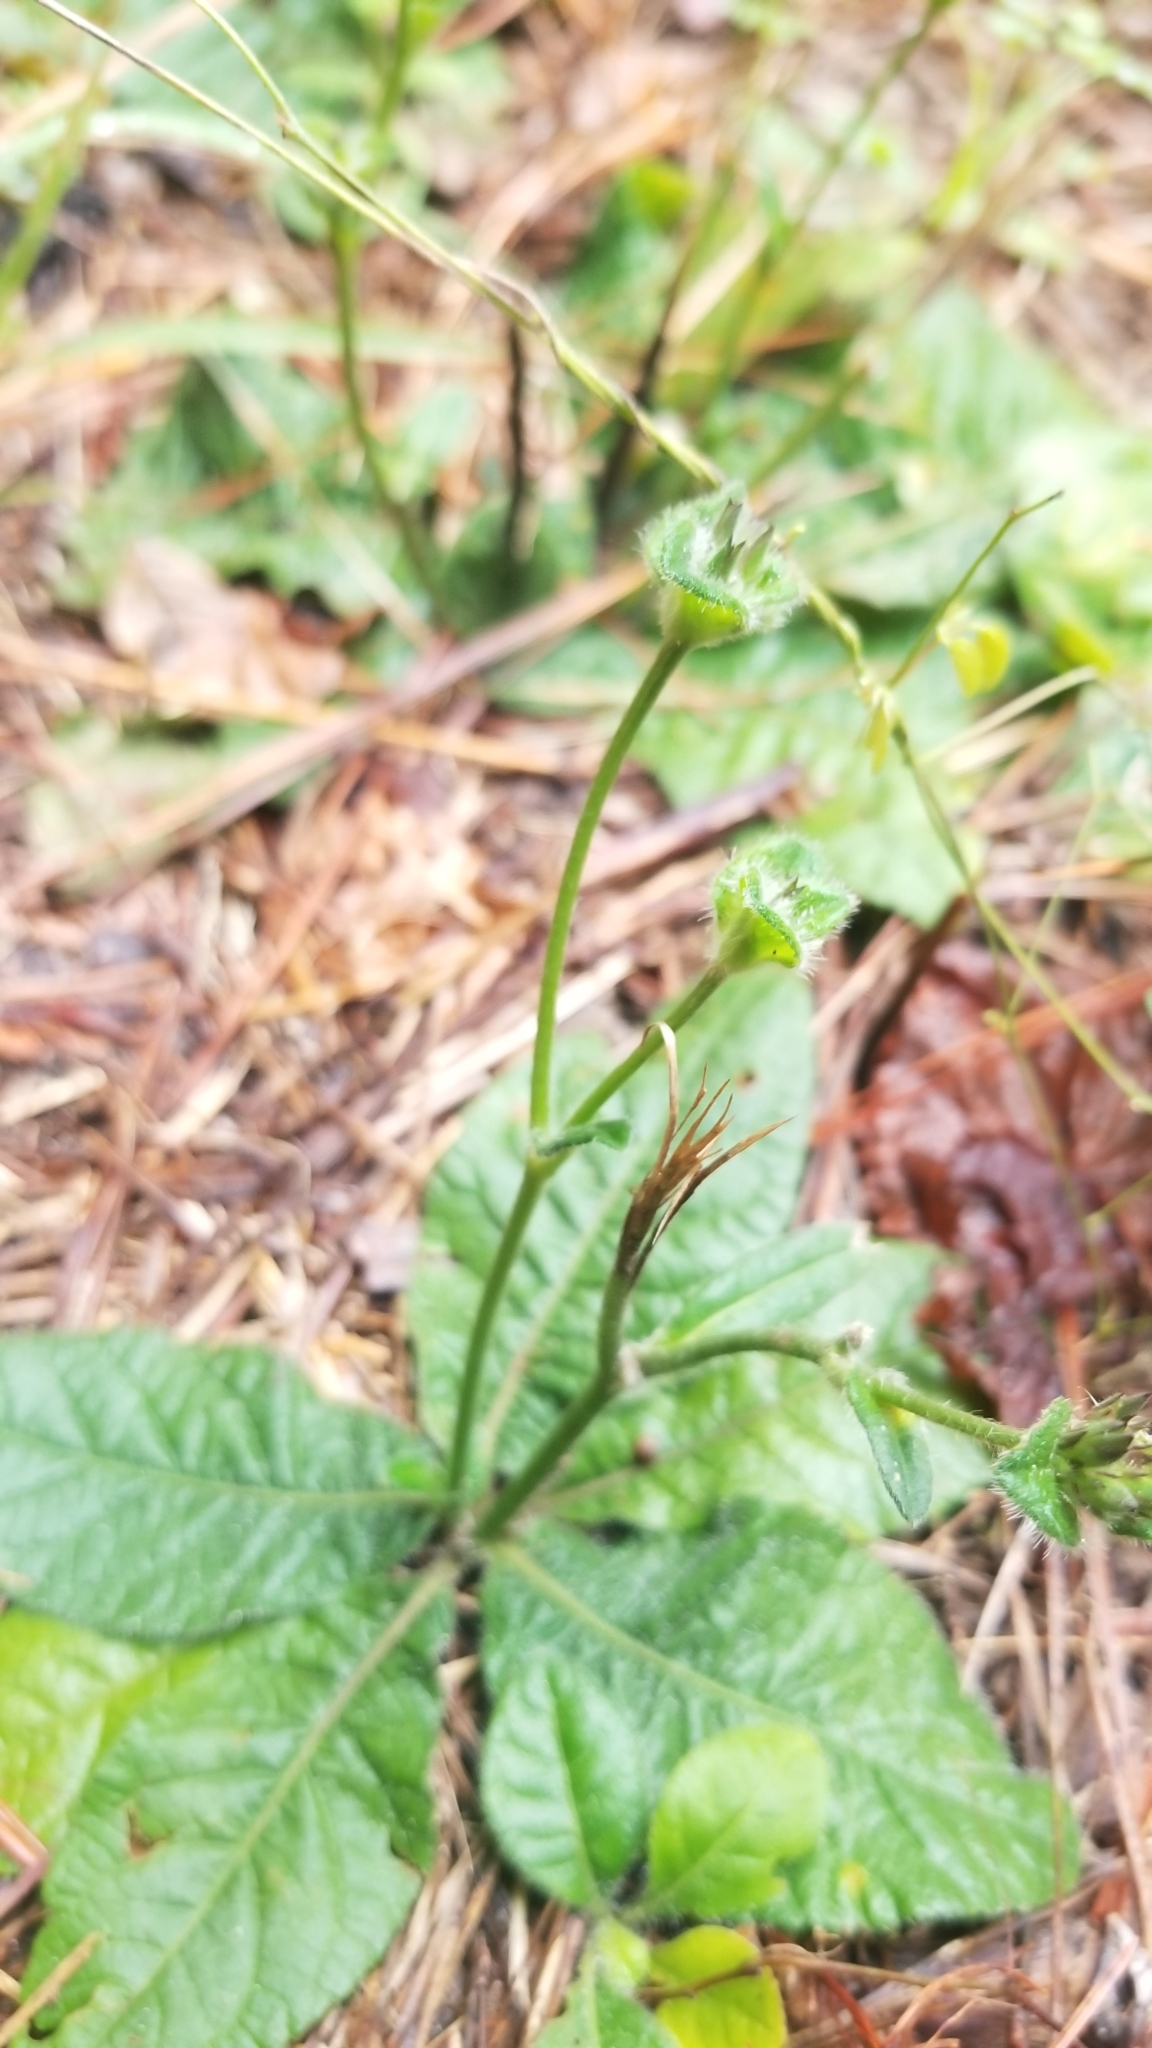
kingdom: Plantae
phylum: Tracheophyta
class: Magnoliopsida
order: Asterales
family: Asteraceae
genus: Elephantopus
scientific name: Elephantopus tomentosus
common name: Tobacco-weed
